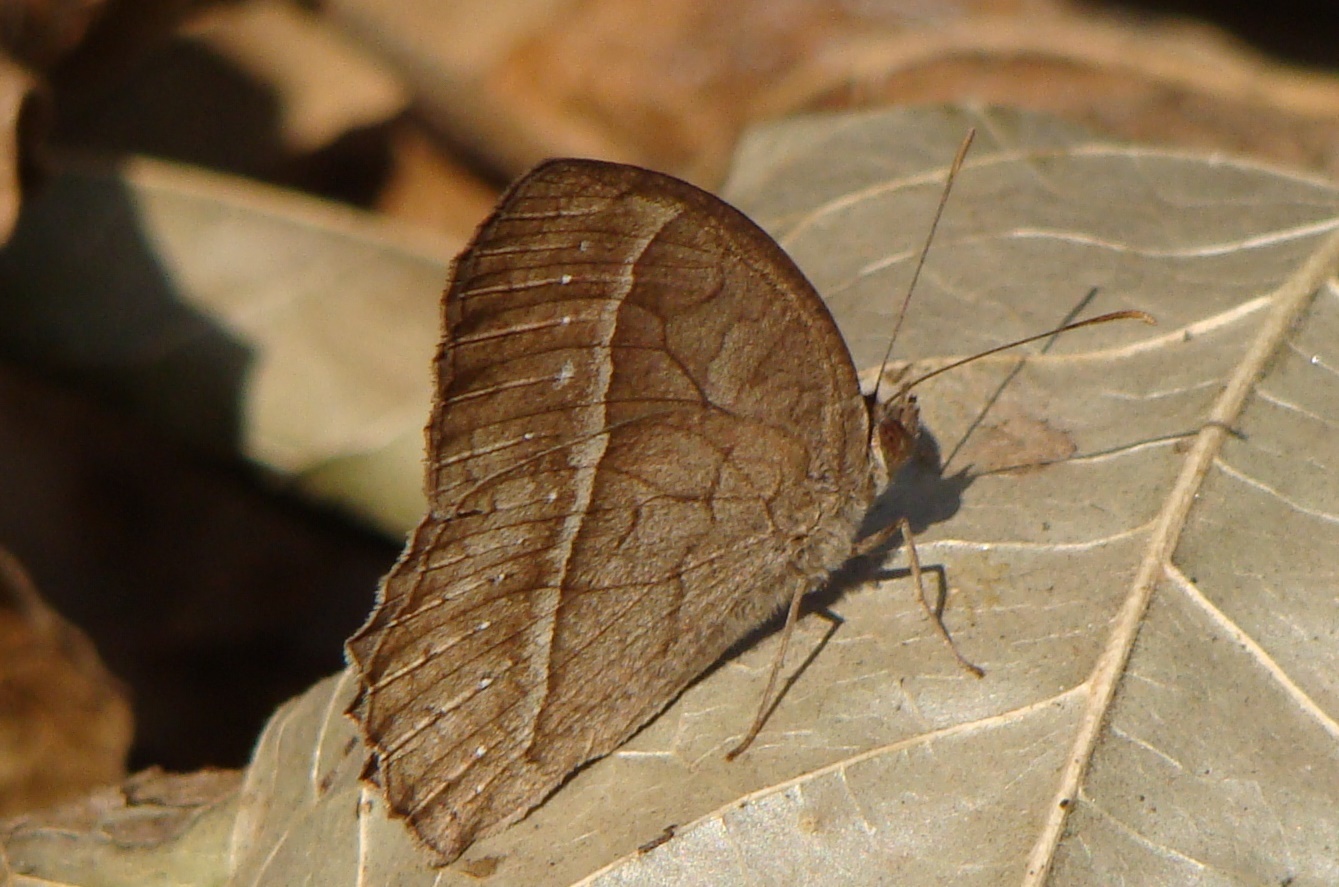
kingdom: Animalia
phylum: Arthropoda
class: Insecta
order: Lepidoptera
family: Nymphalidae
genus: Mycalesis
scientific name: Mycalesis
